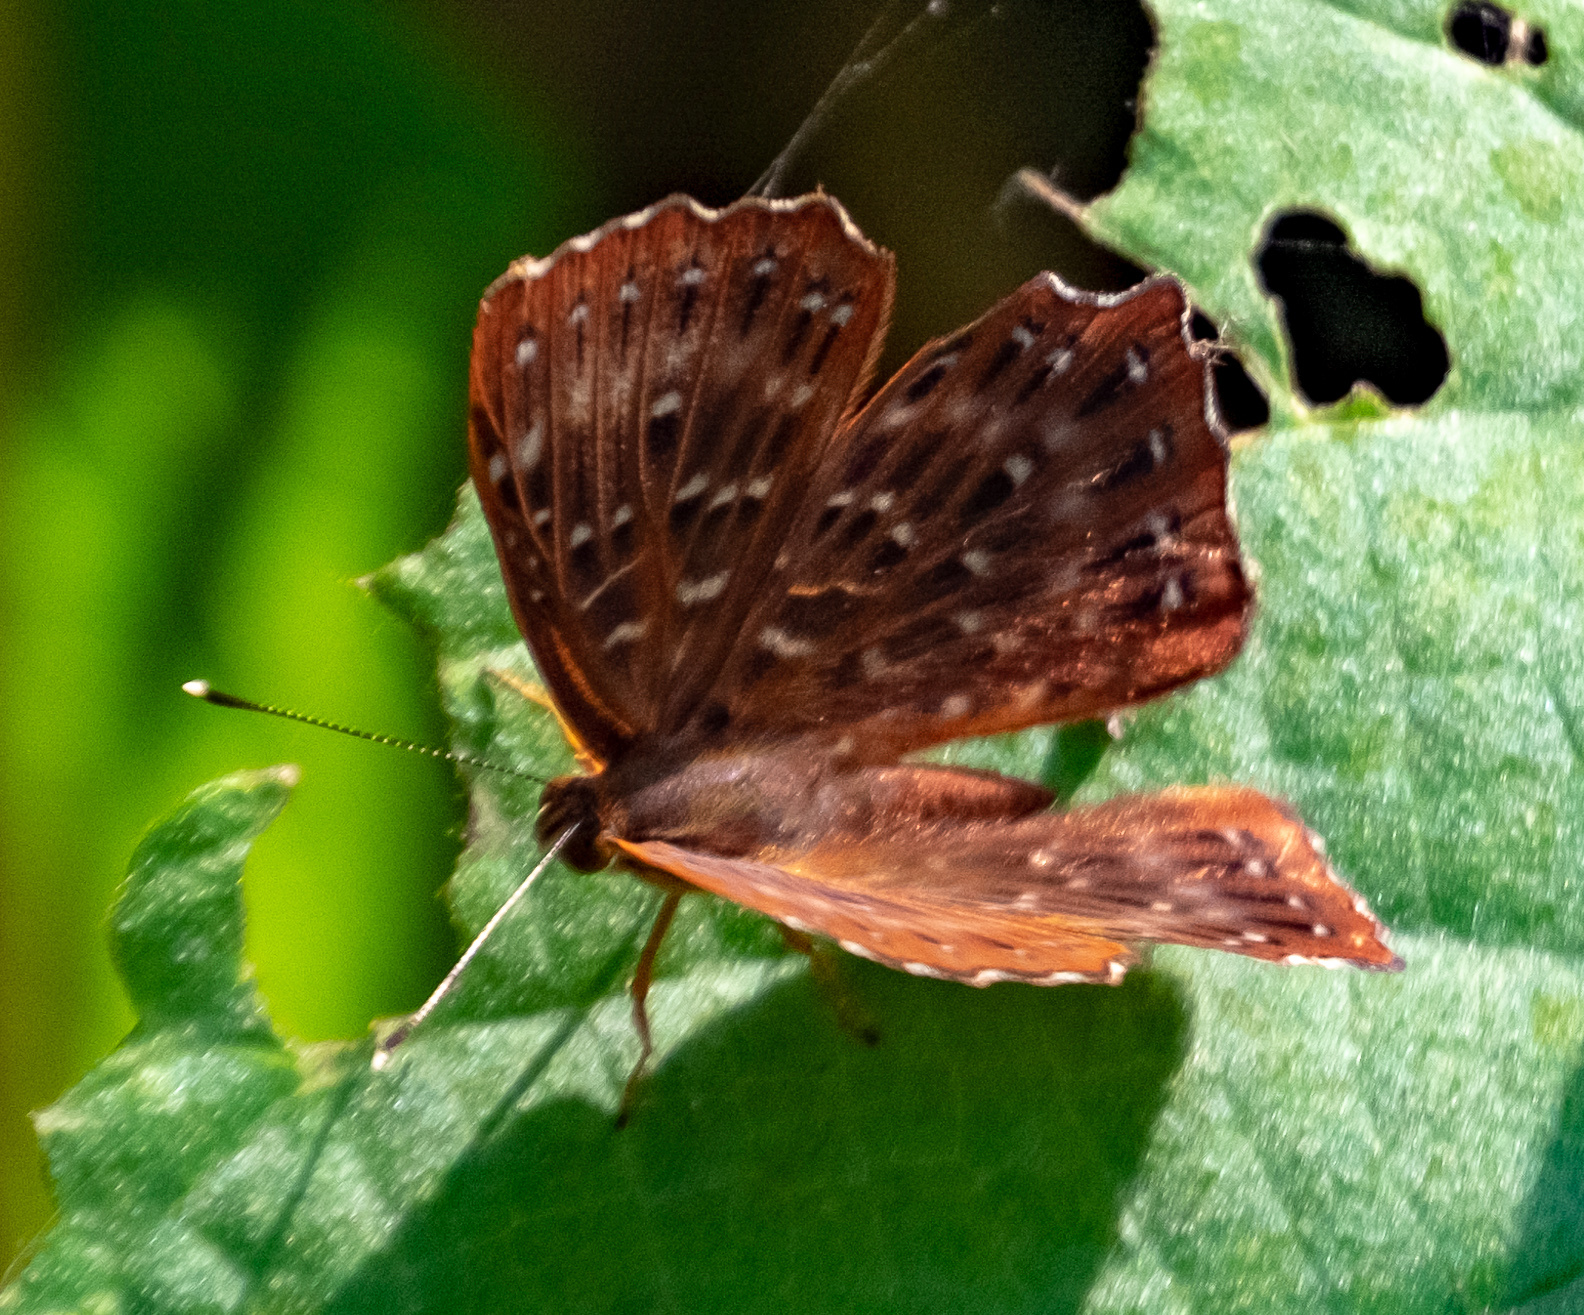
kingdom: Animalia
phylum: Arthropoda
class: Insecta
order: Lepidoptera
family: Riodinidae
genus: Zemeros
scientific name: Zemeros flegyas
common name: Punchinello
